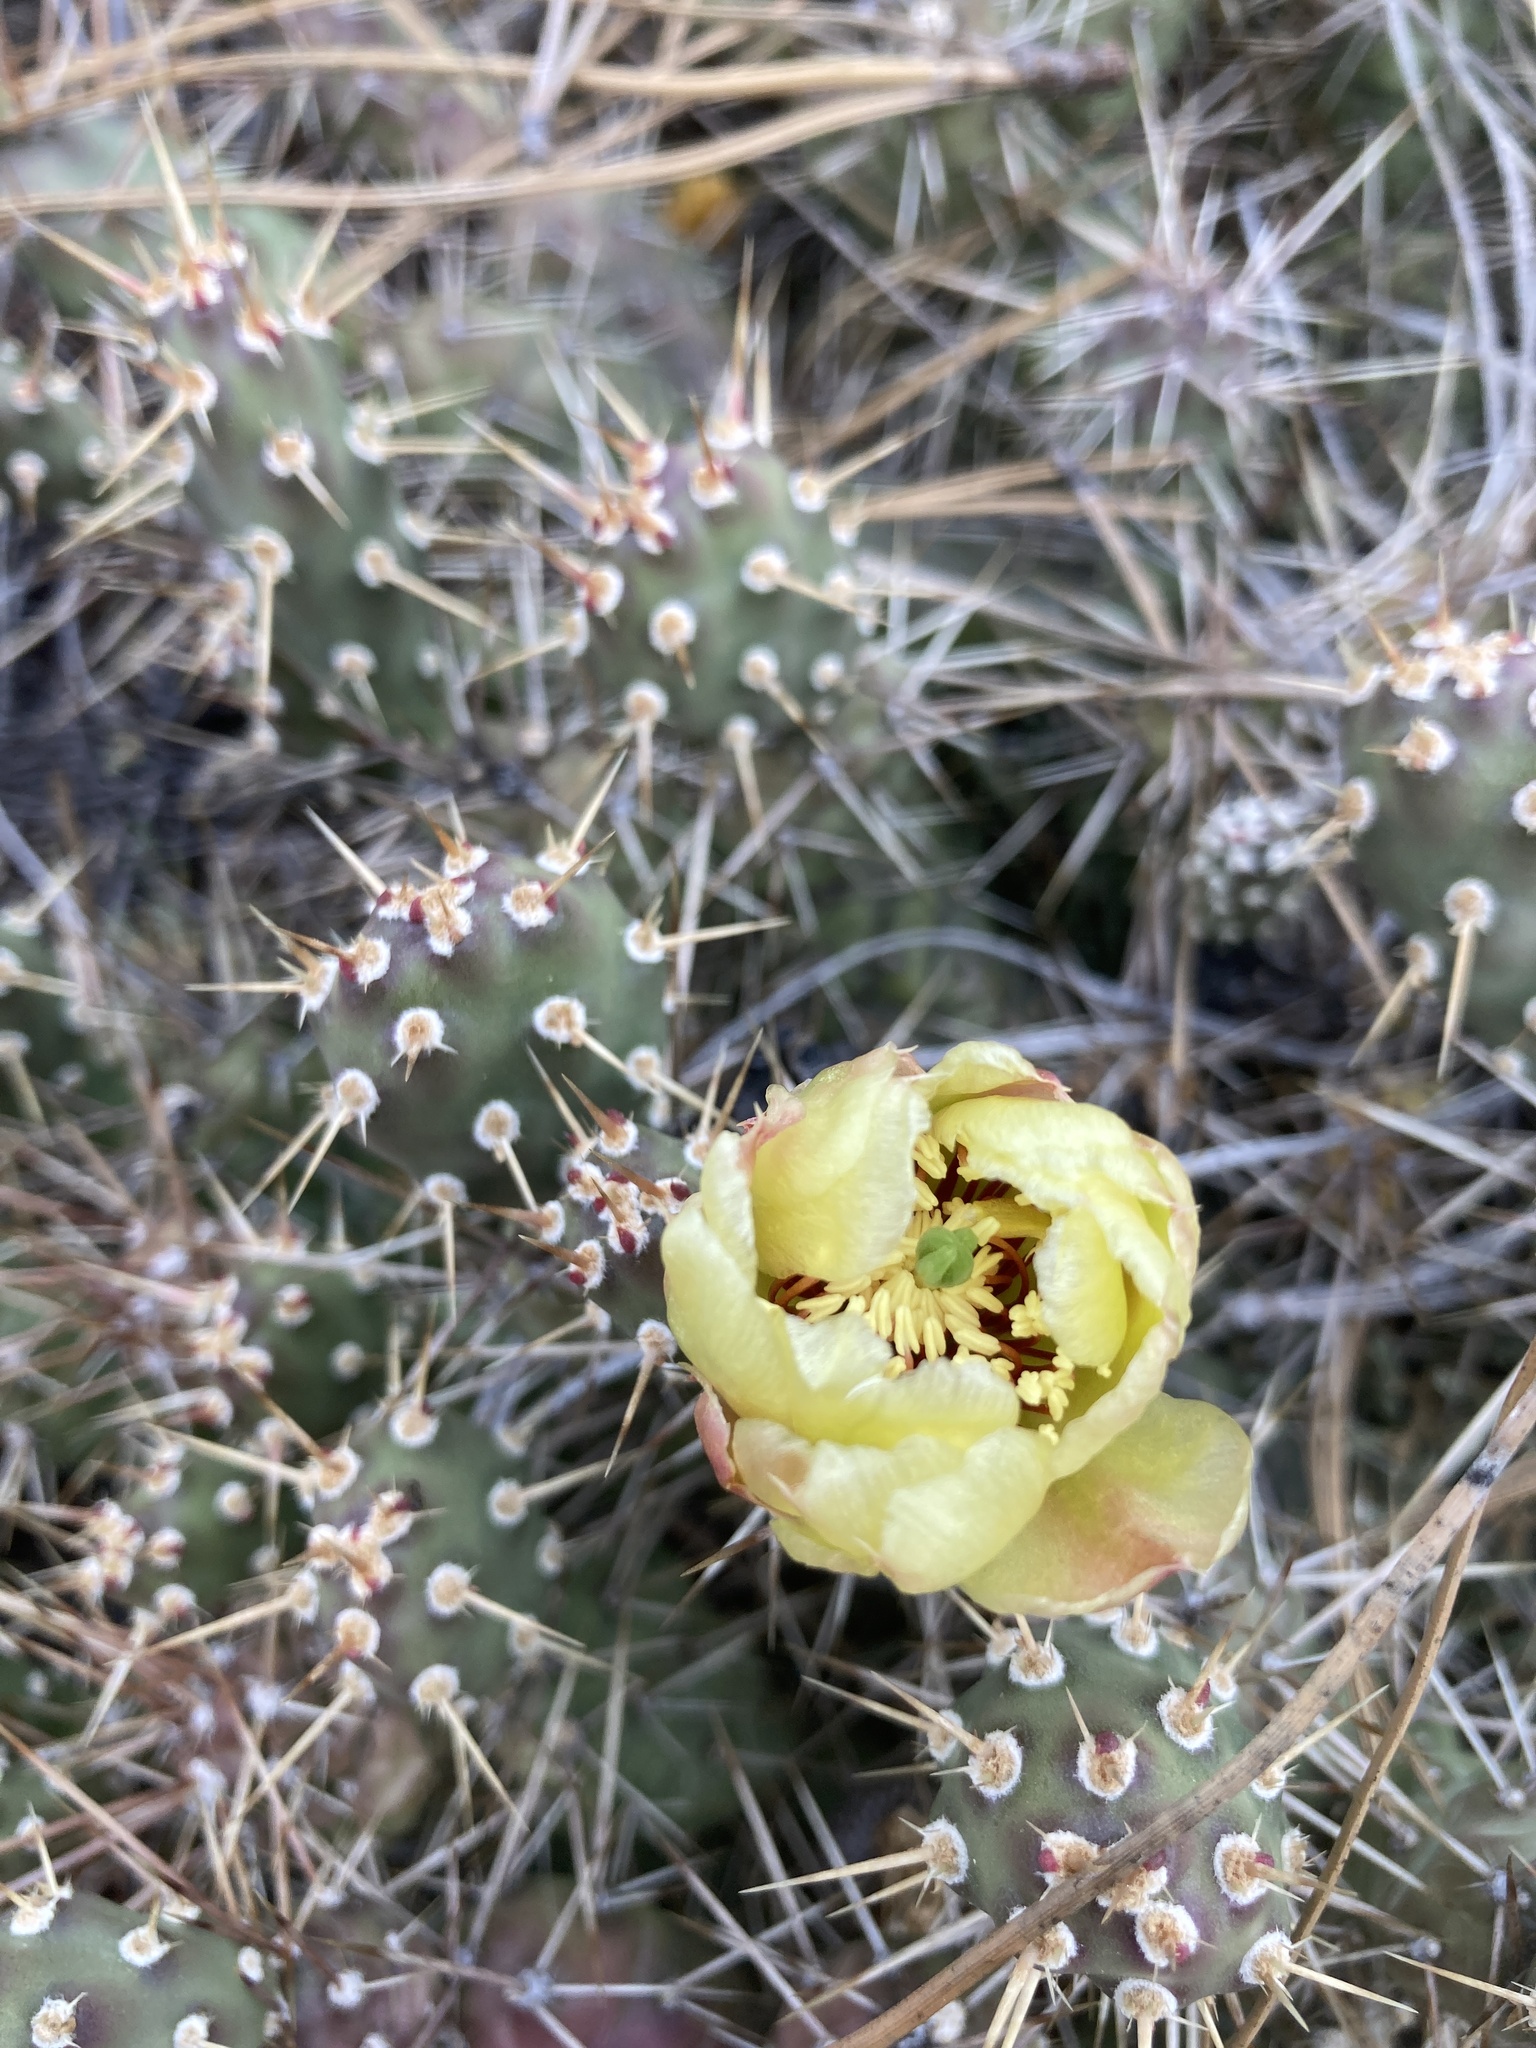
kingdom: Plantae
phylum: Tracheophyta
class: Magnoliopsida
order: Caryophyllales
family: Cactaceae
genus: Opuntia
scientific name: Opuntia fragilis
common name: Brittle cactus
